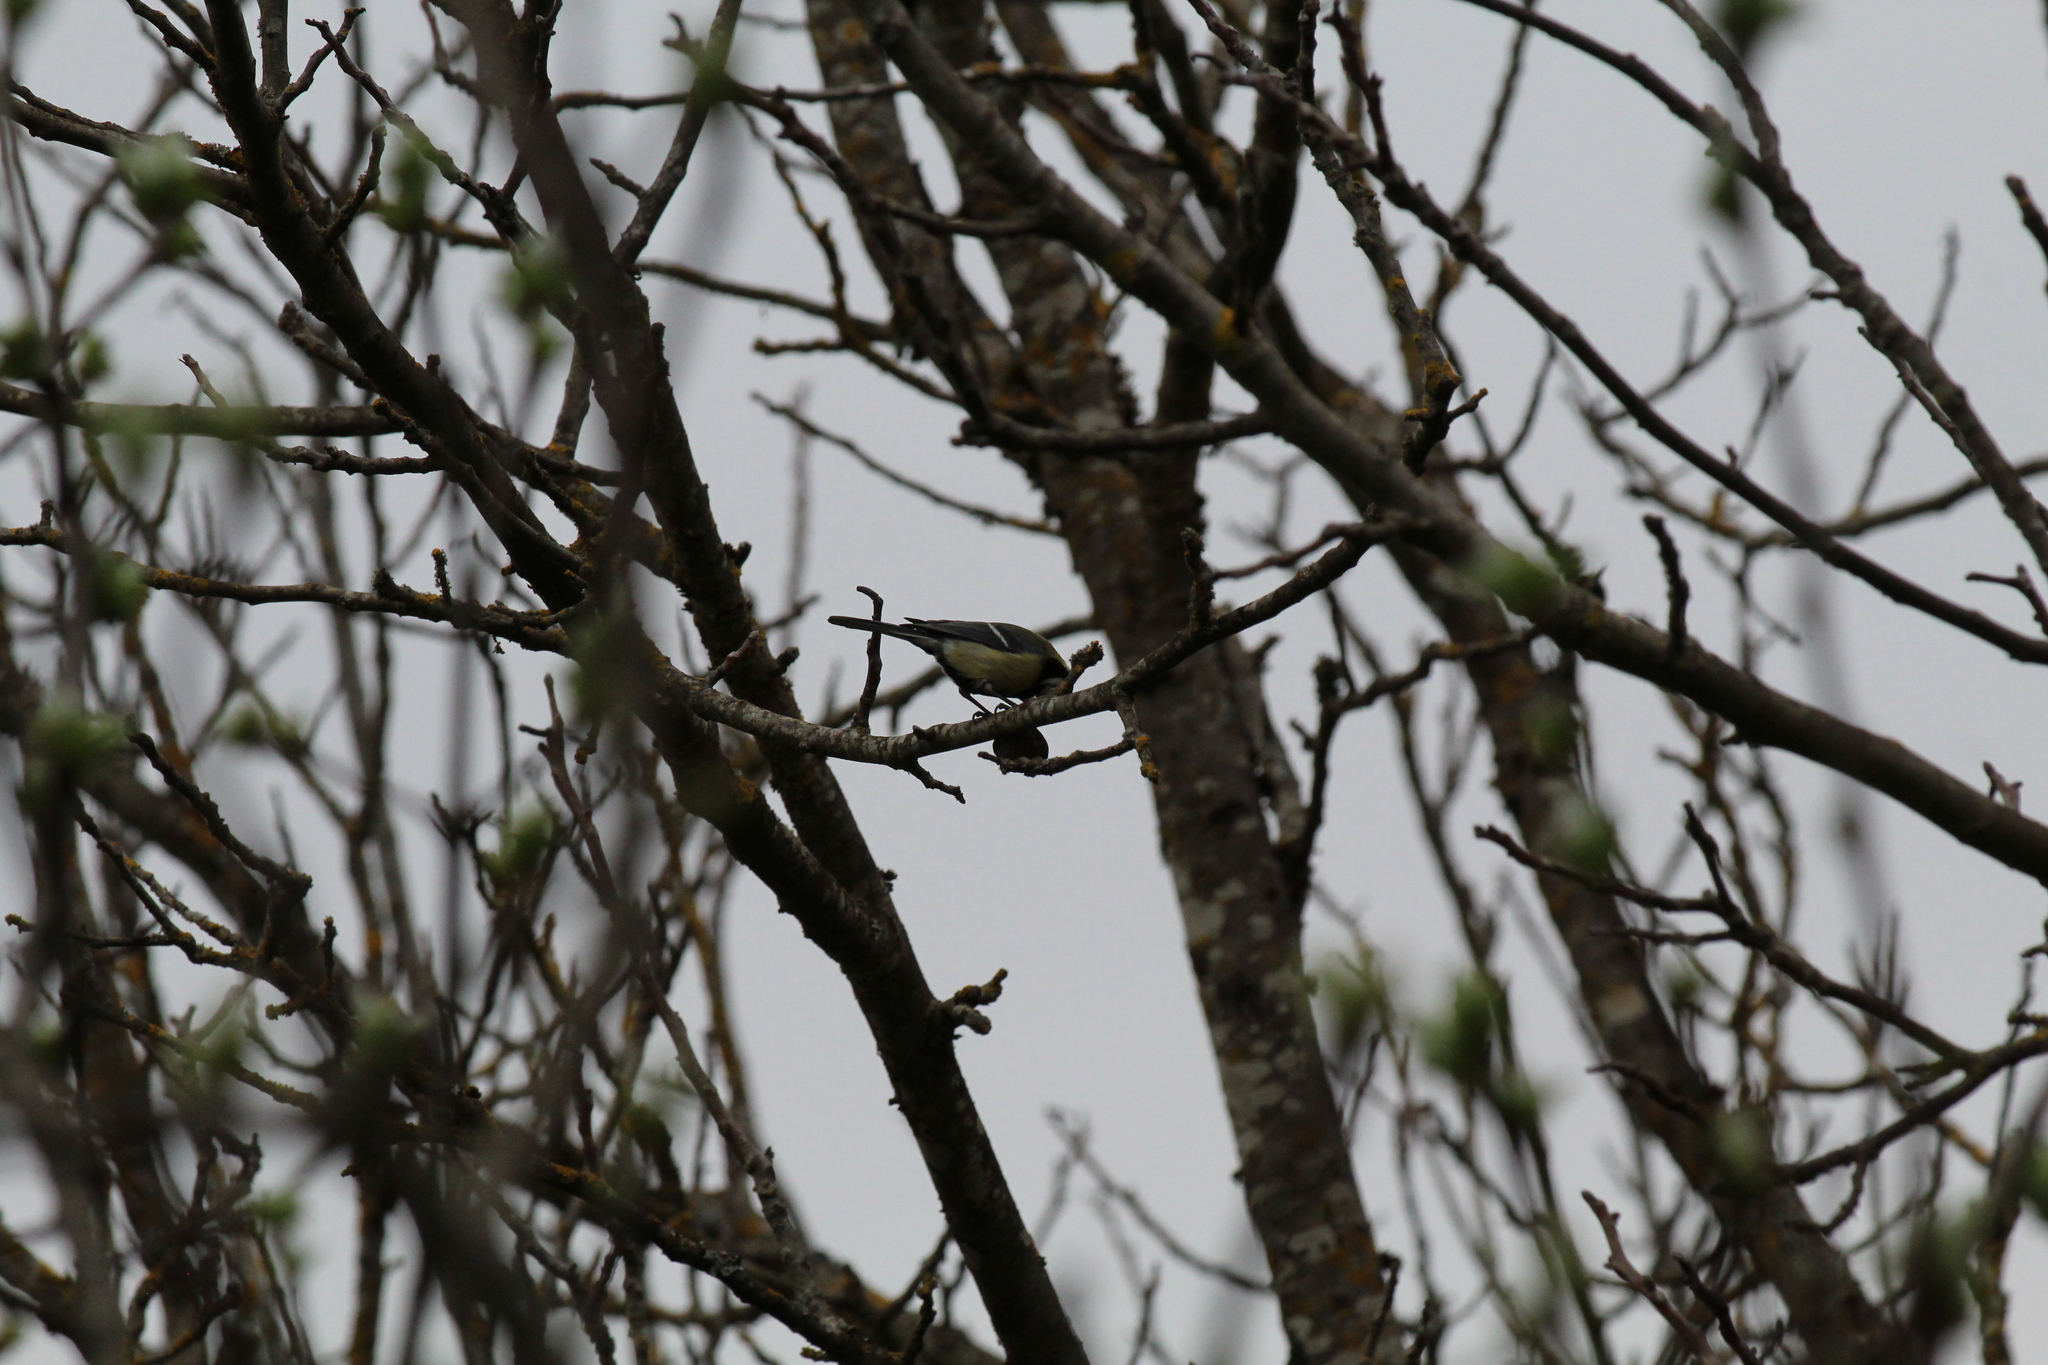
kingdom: Animalia
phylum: Chordata
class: Aves
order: Passeriformes
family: Paridae
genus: Parus
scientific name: Parus major
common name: Great tit
